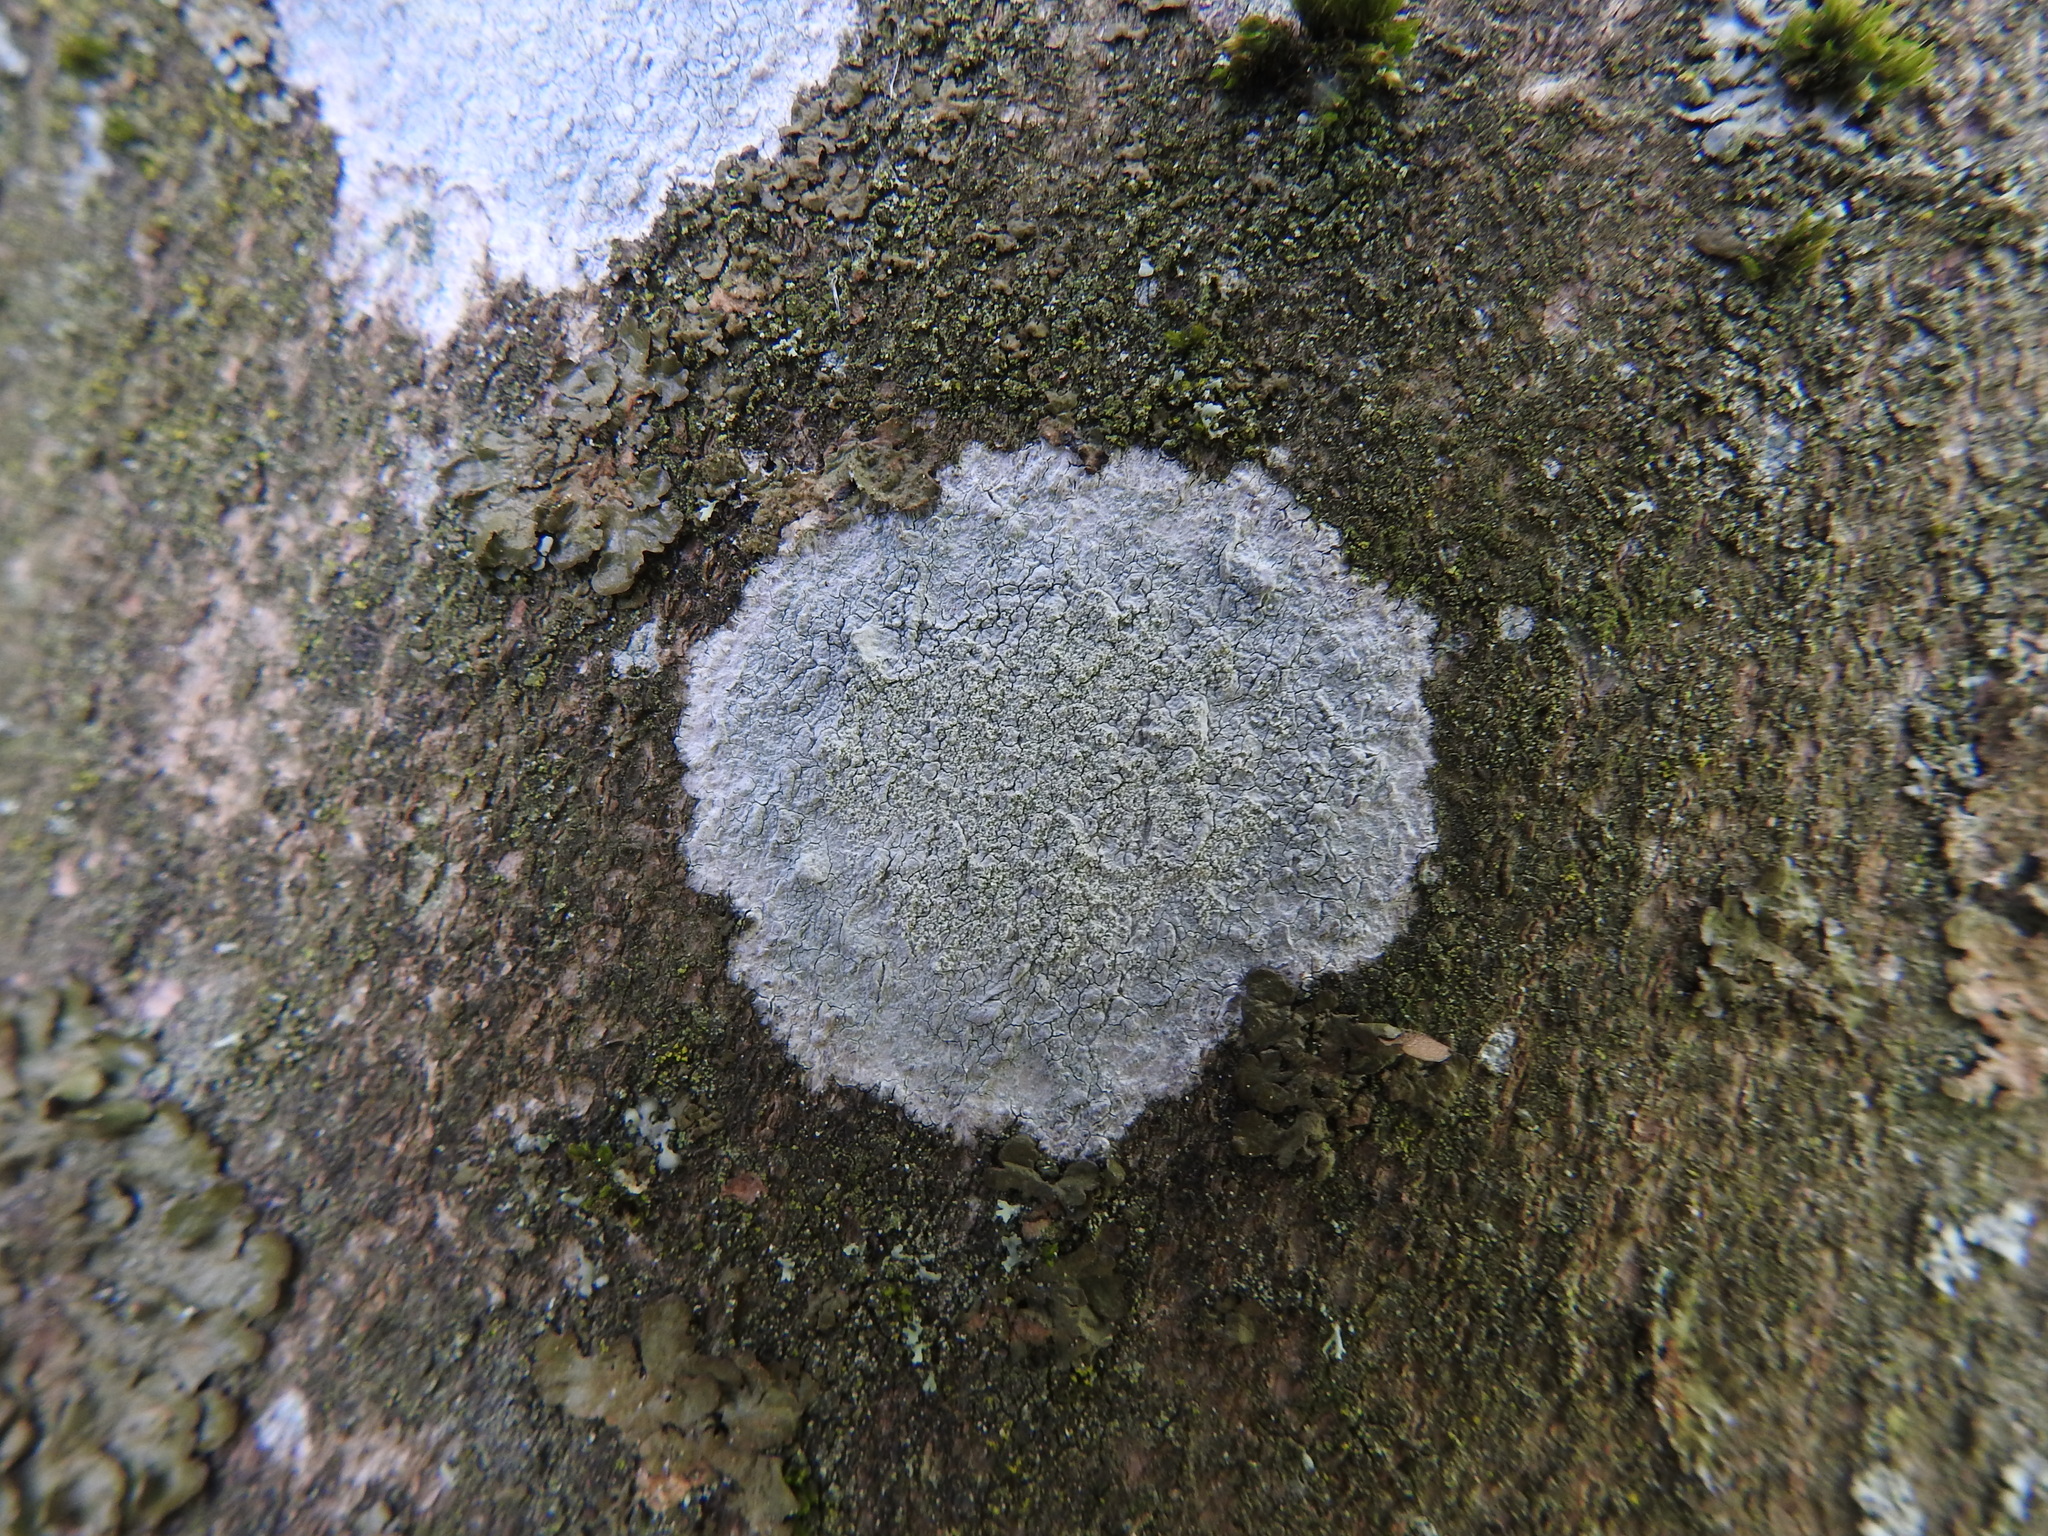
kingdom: Fungi
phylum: Ascomycota
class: Lecanoromycetes
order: Ostropales
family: Phlyctidaceae
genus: Phlyctis
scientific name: Phlyctis argena
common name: Whitewash lichen
